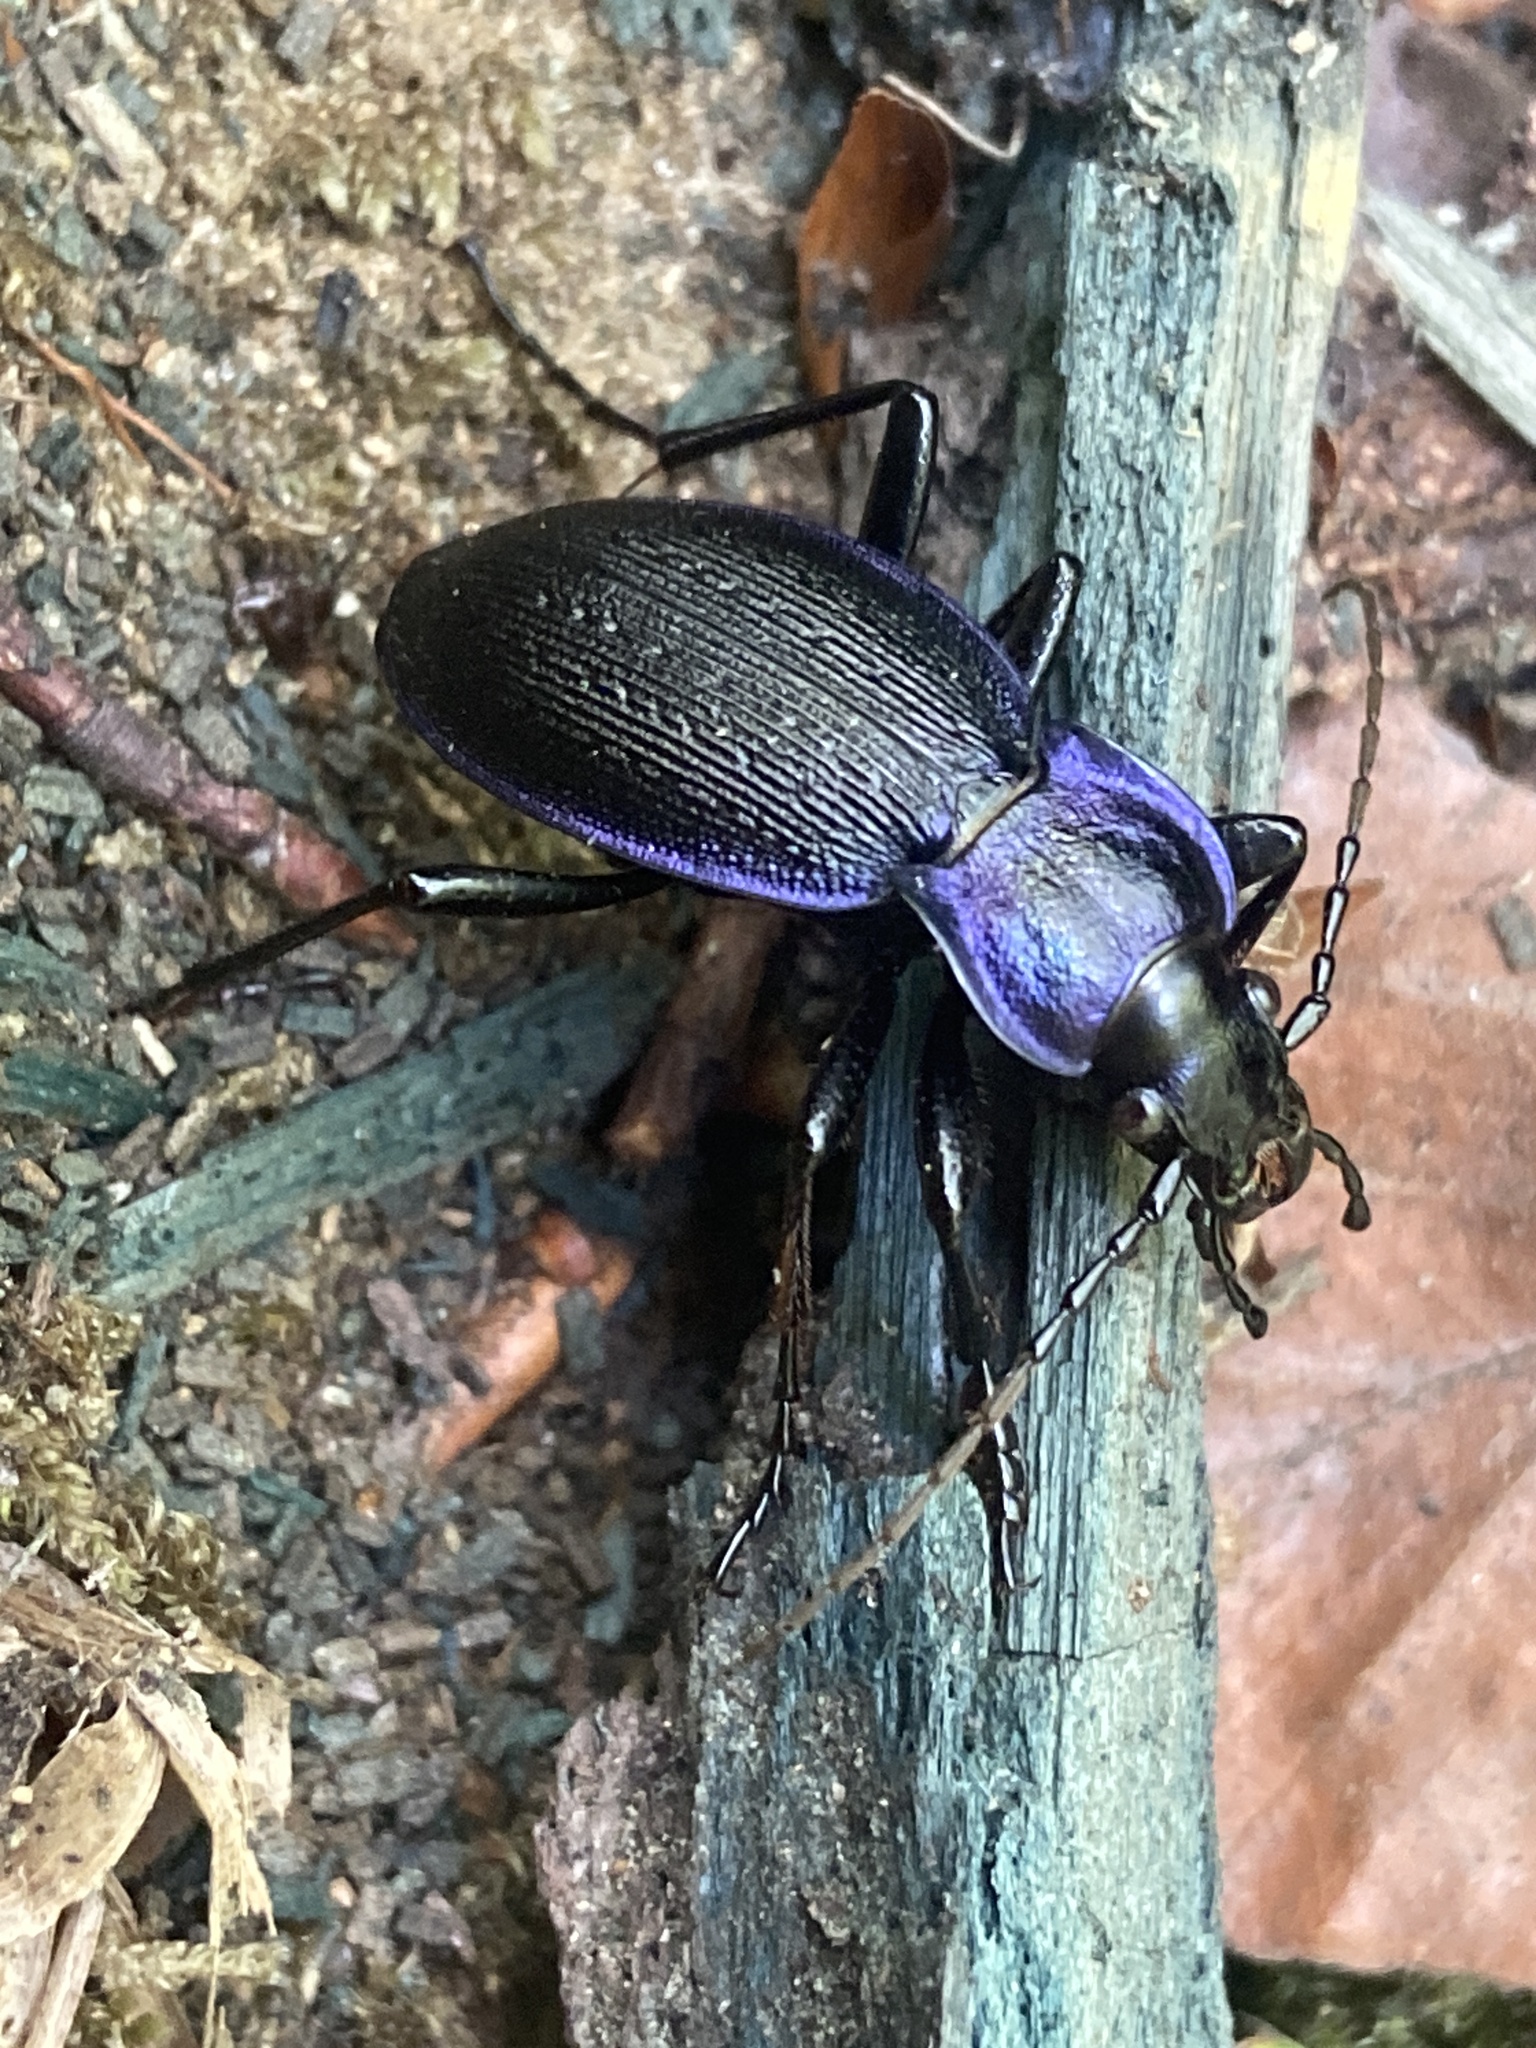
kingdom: Animalia
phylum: Arthropoda
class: Insecta
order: Coleoptera
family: Carabidae
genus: Carabus
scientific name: Carabus problematicus
